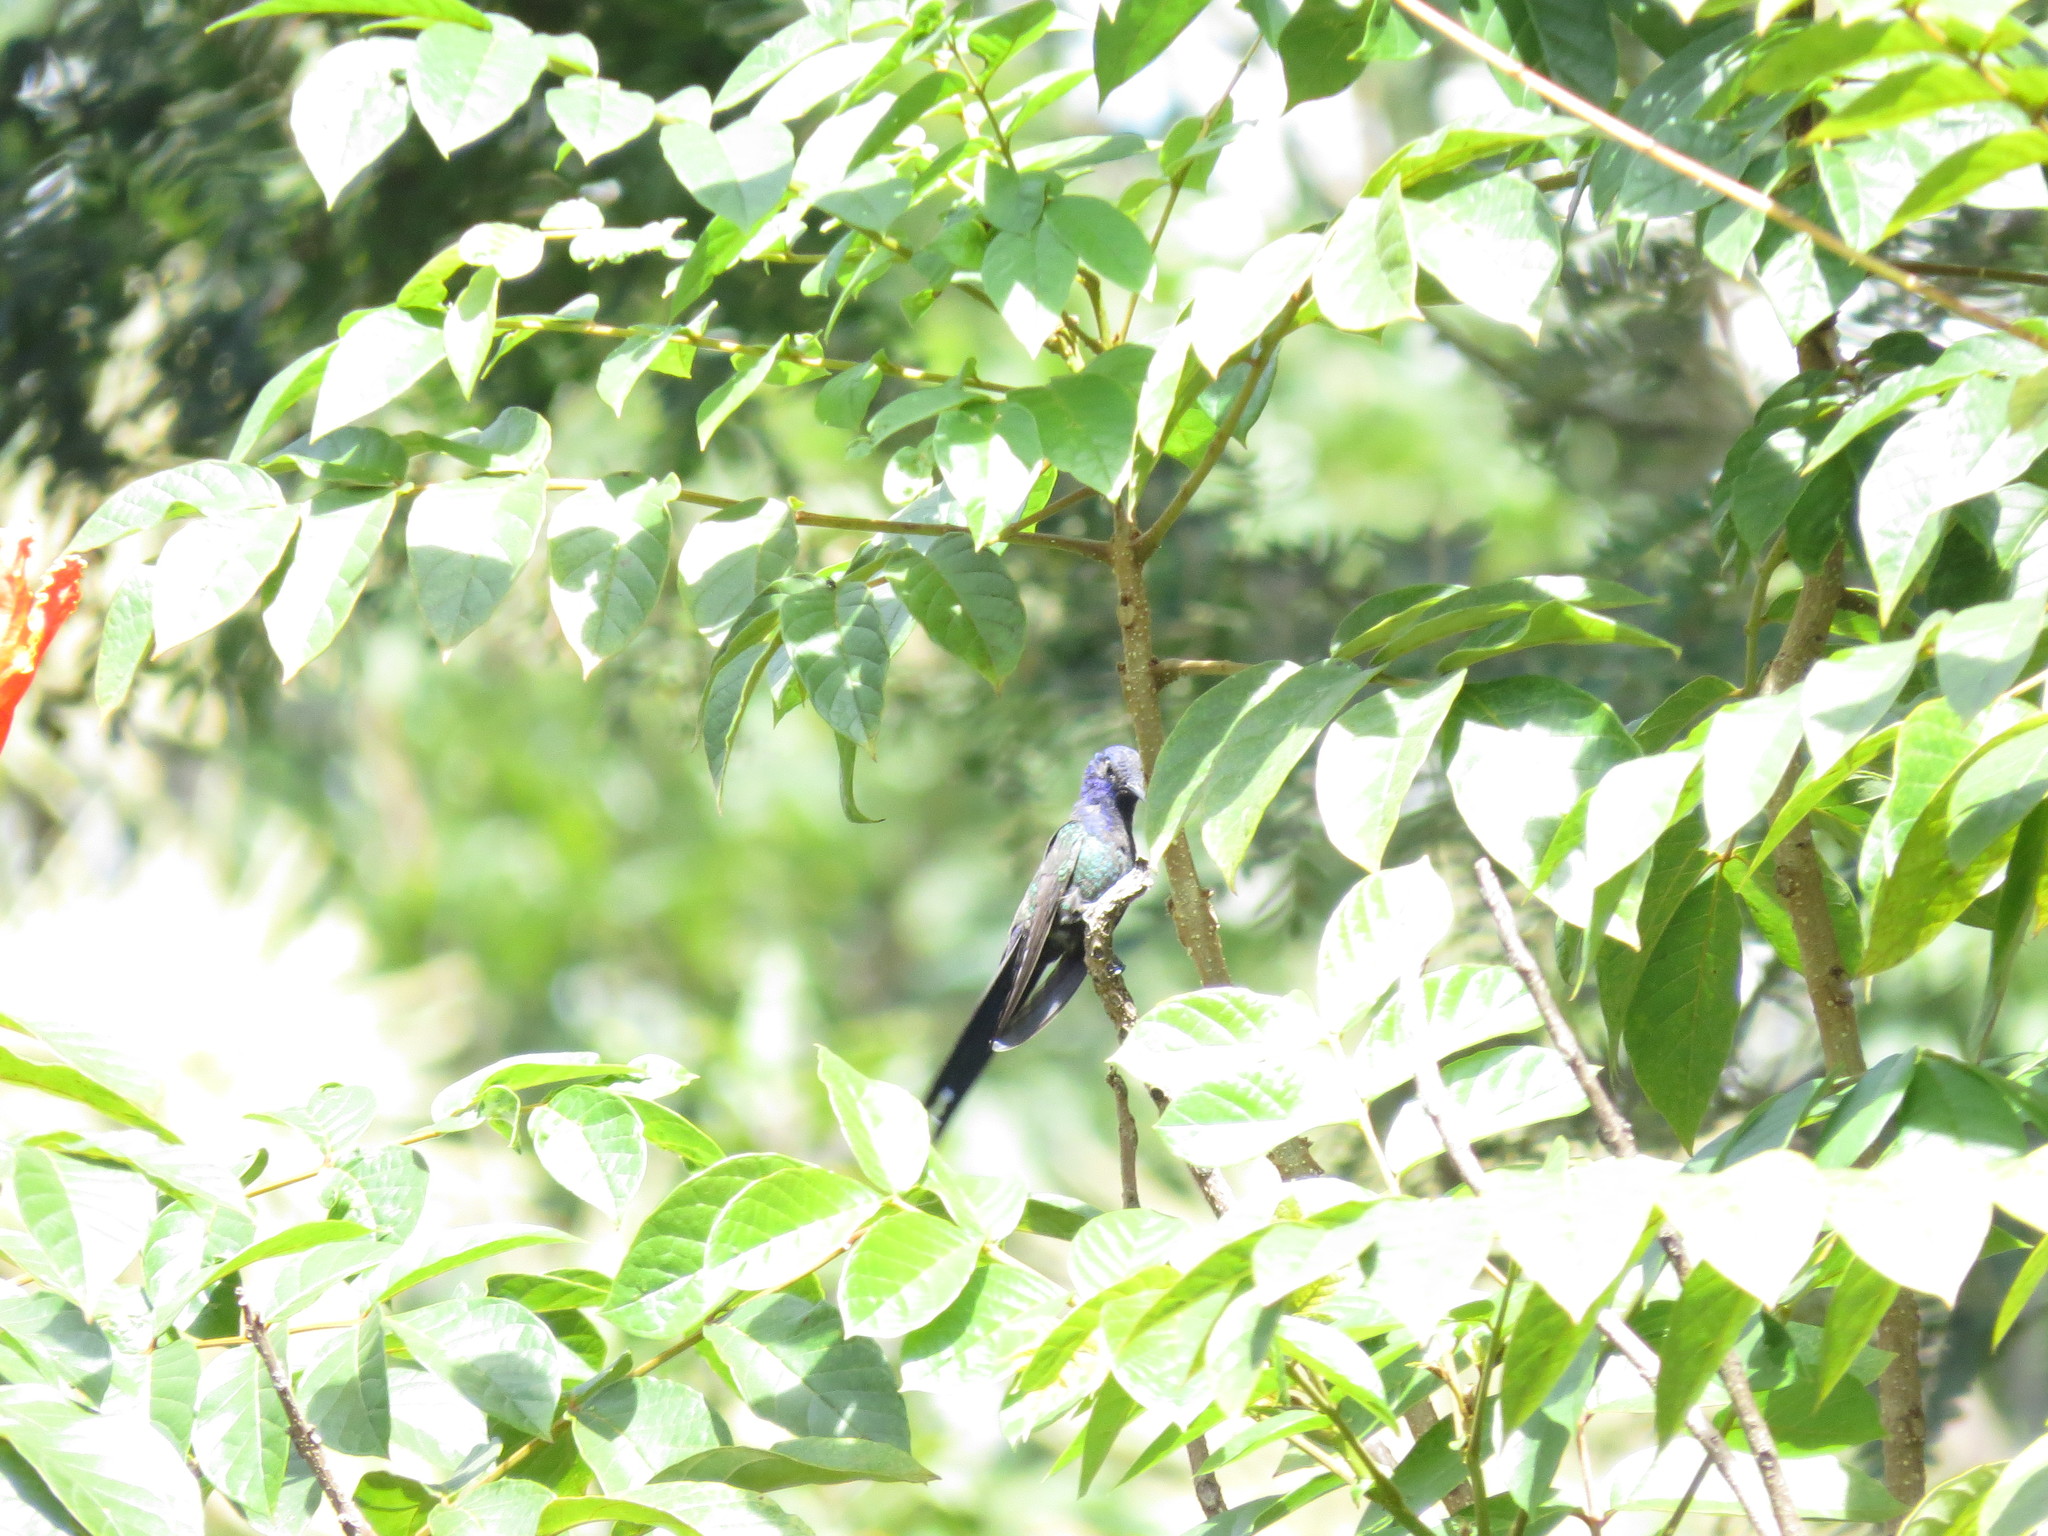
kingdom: Animalia
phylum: Chordata
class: Aves
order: Apodiformes
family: Trochilidae
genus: Eupetomena
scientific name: Eupetomena macroura
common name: Swallow-tailed hummingbird
